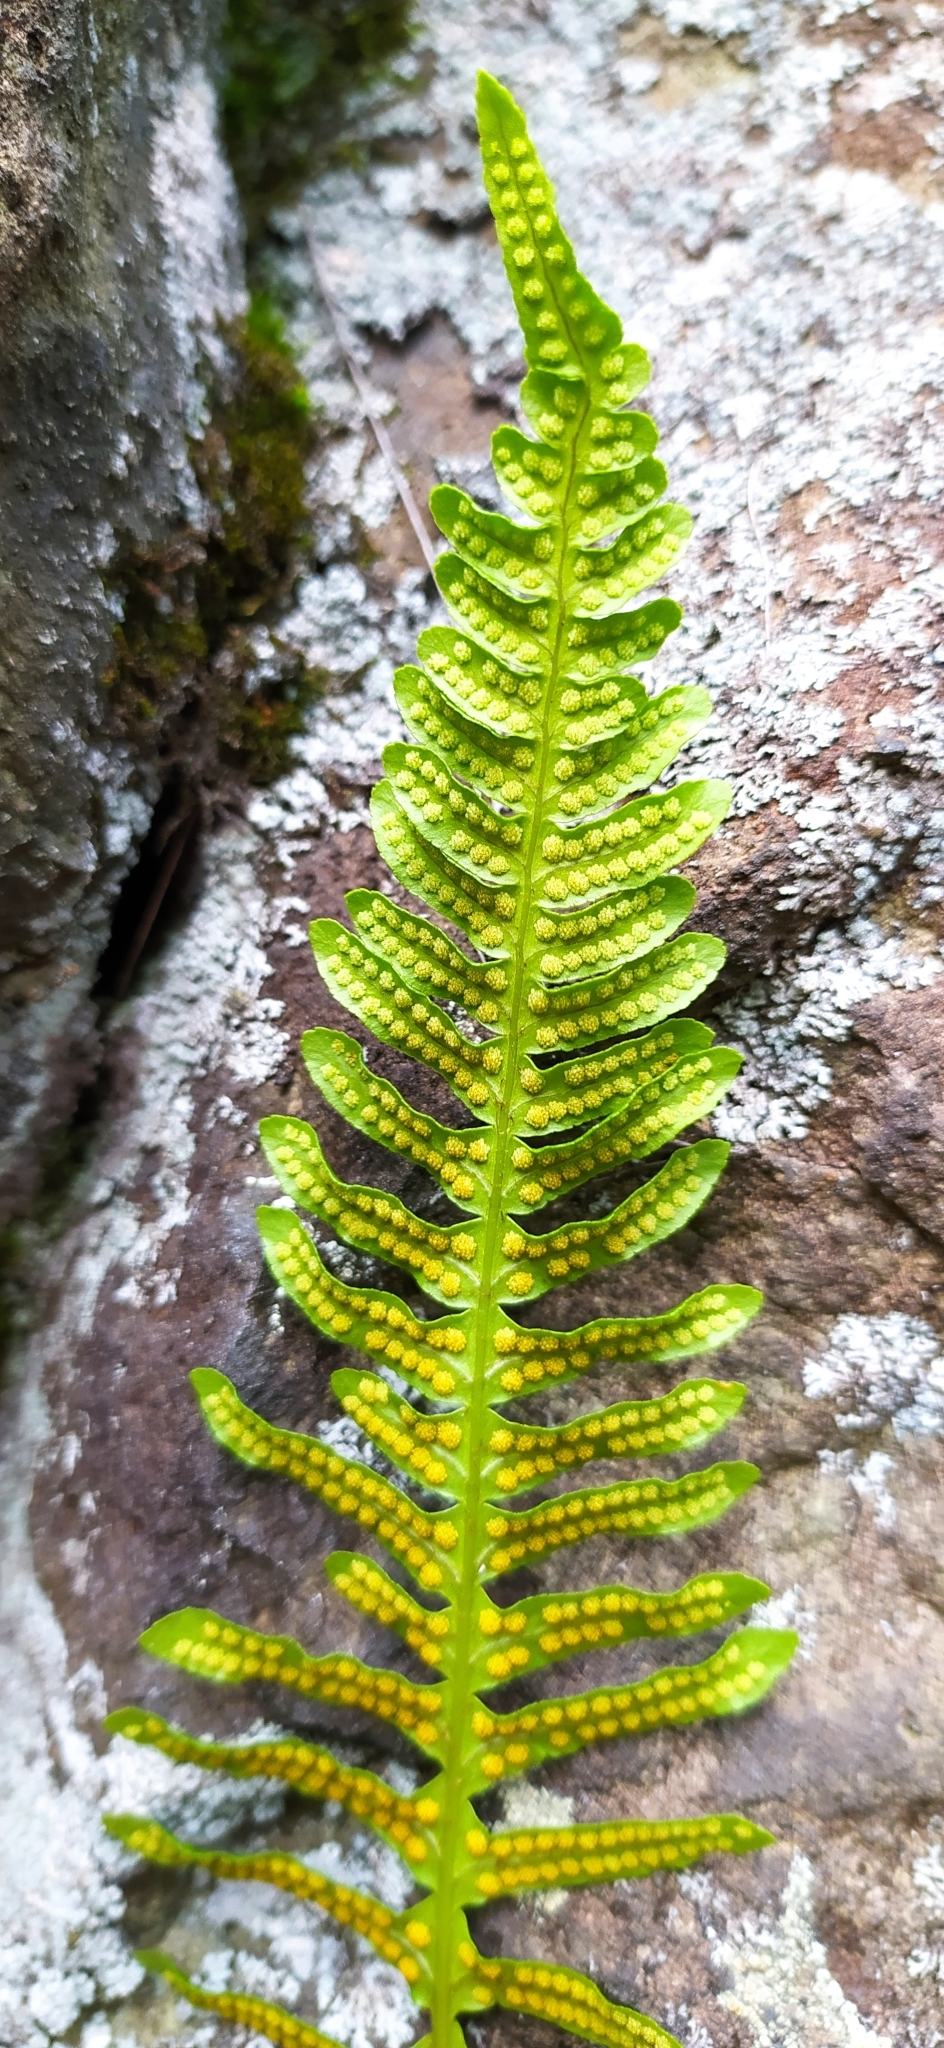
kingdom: Plantae
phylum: Tracheophyta
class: Polypodiopsida
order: Polypodiales
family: Polypodiaceae
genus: Polypodium
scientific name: Polypodium vulgare
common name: Common polypody
